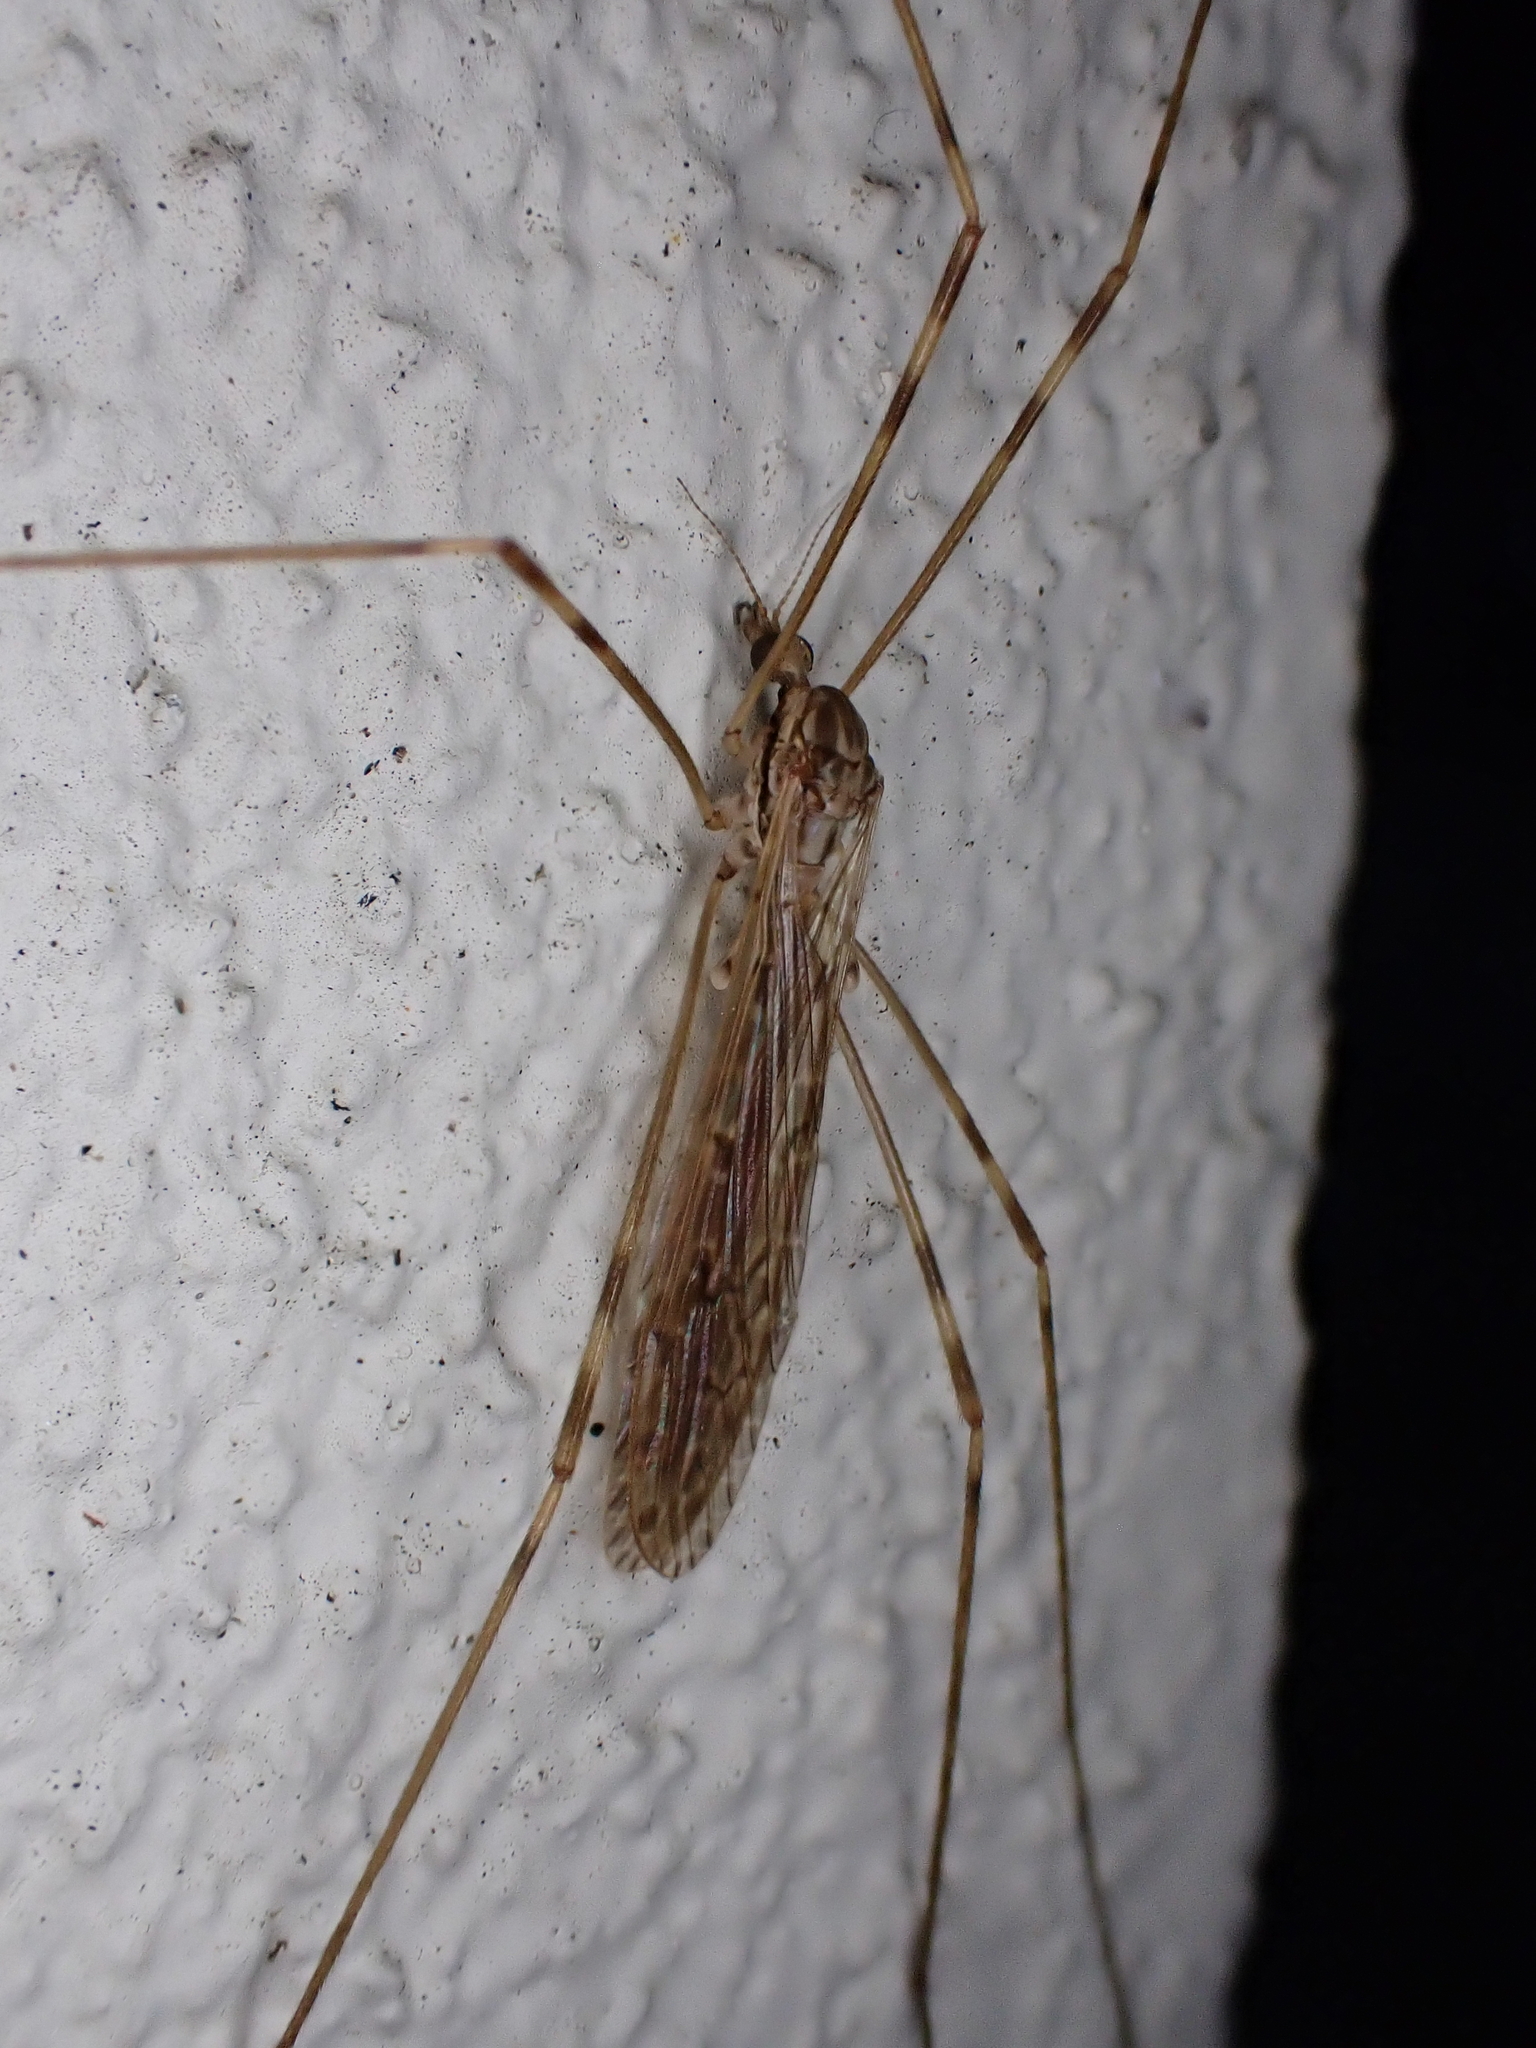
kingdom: Animalia
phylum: Arthropoda
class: Insecta
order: Diptera
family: Limoniidae
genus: Austrolimnophila
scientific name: Austrolimnophila crassipes
